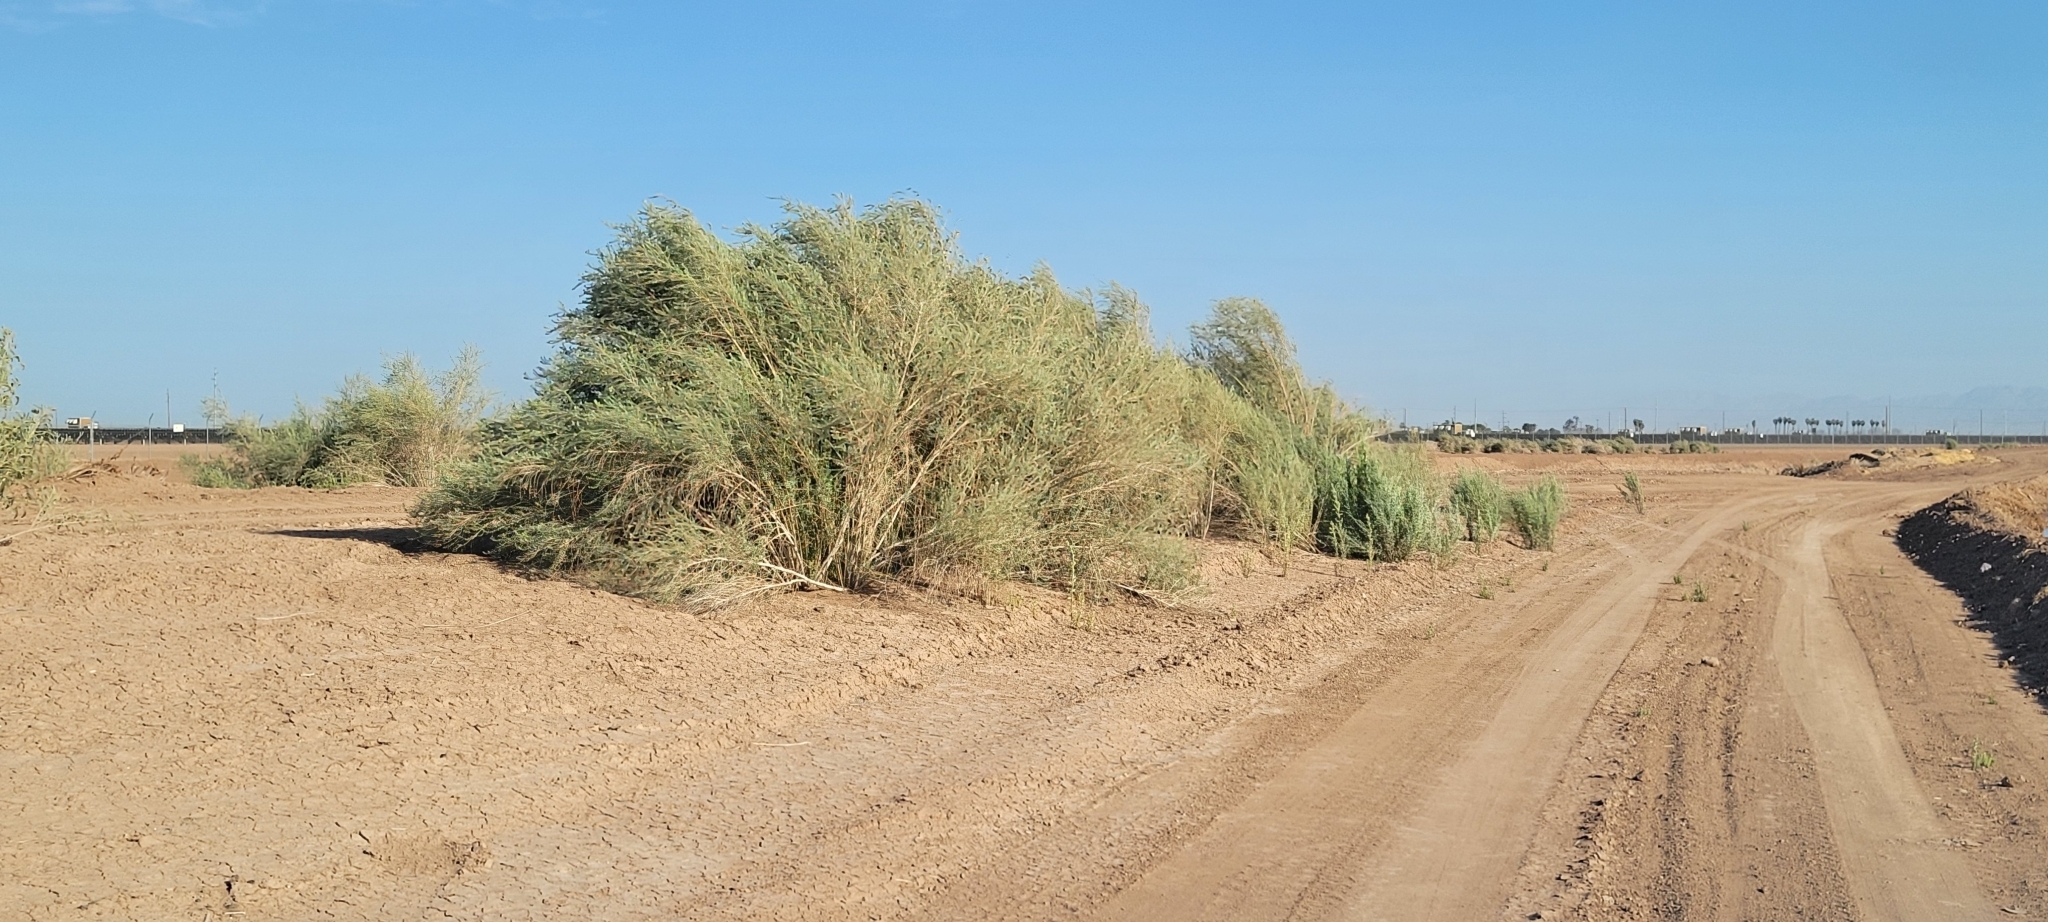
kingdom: Plantae
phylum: Tracheophyta
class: Magnoliopsida
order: Asterales
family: Asteraceae
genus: Pluchea
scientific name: Pluchea sericea
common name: Arrow-weed
